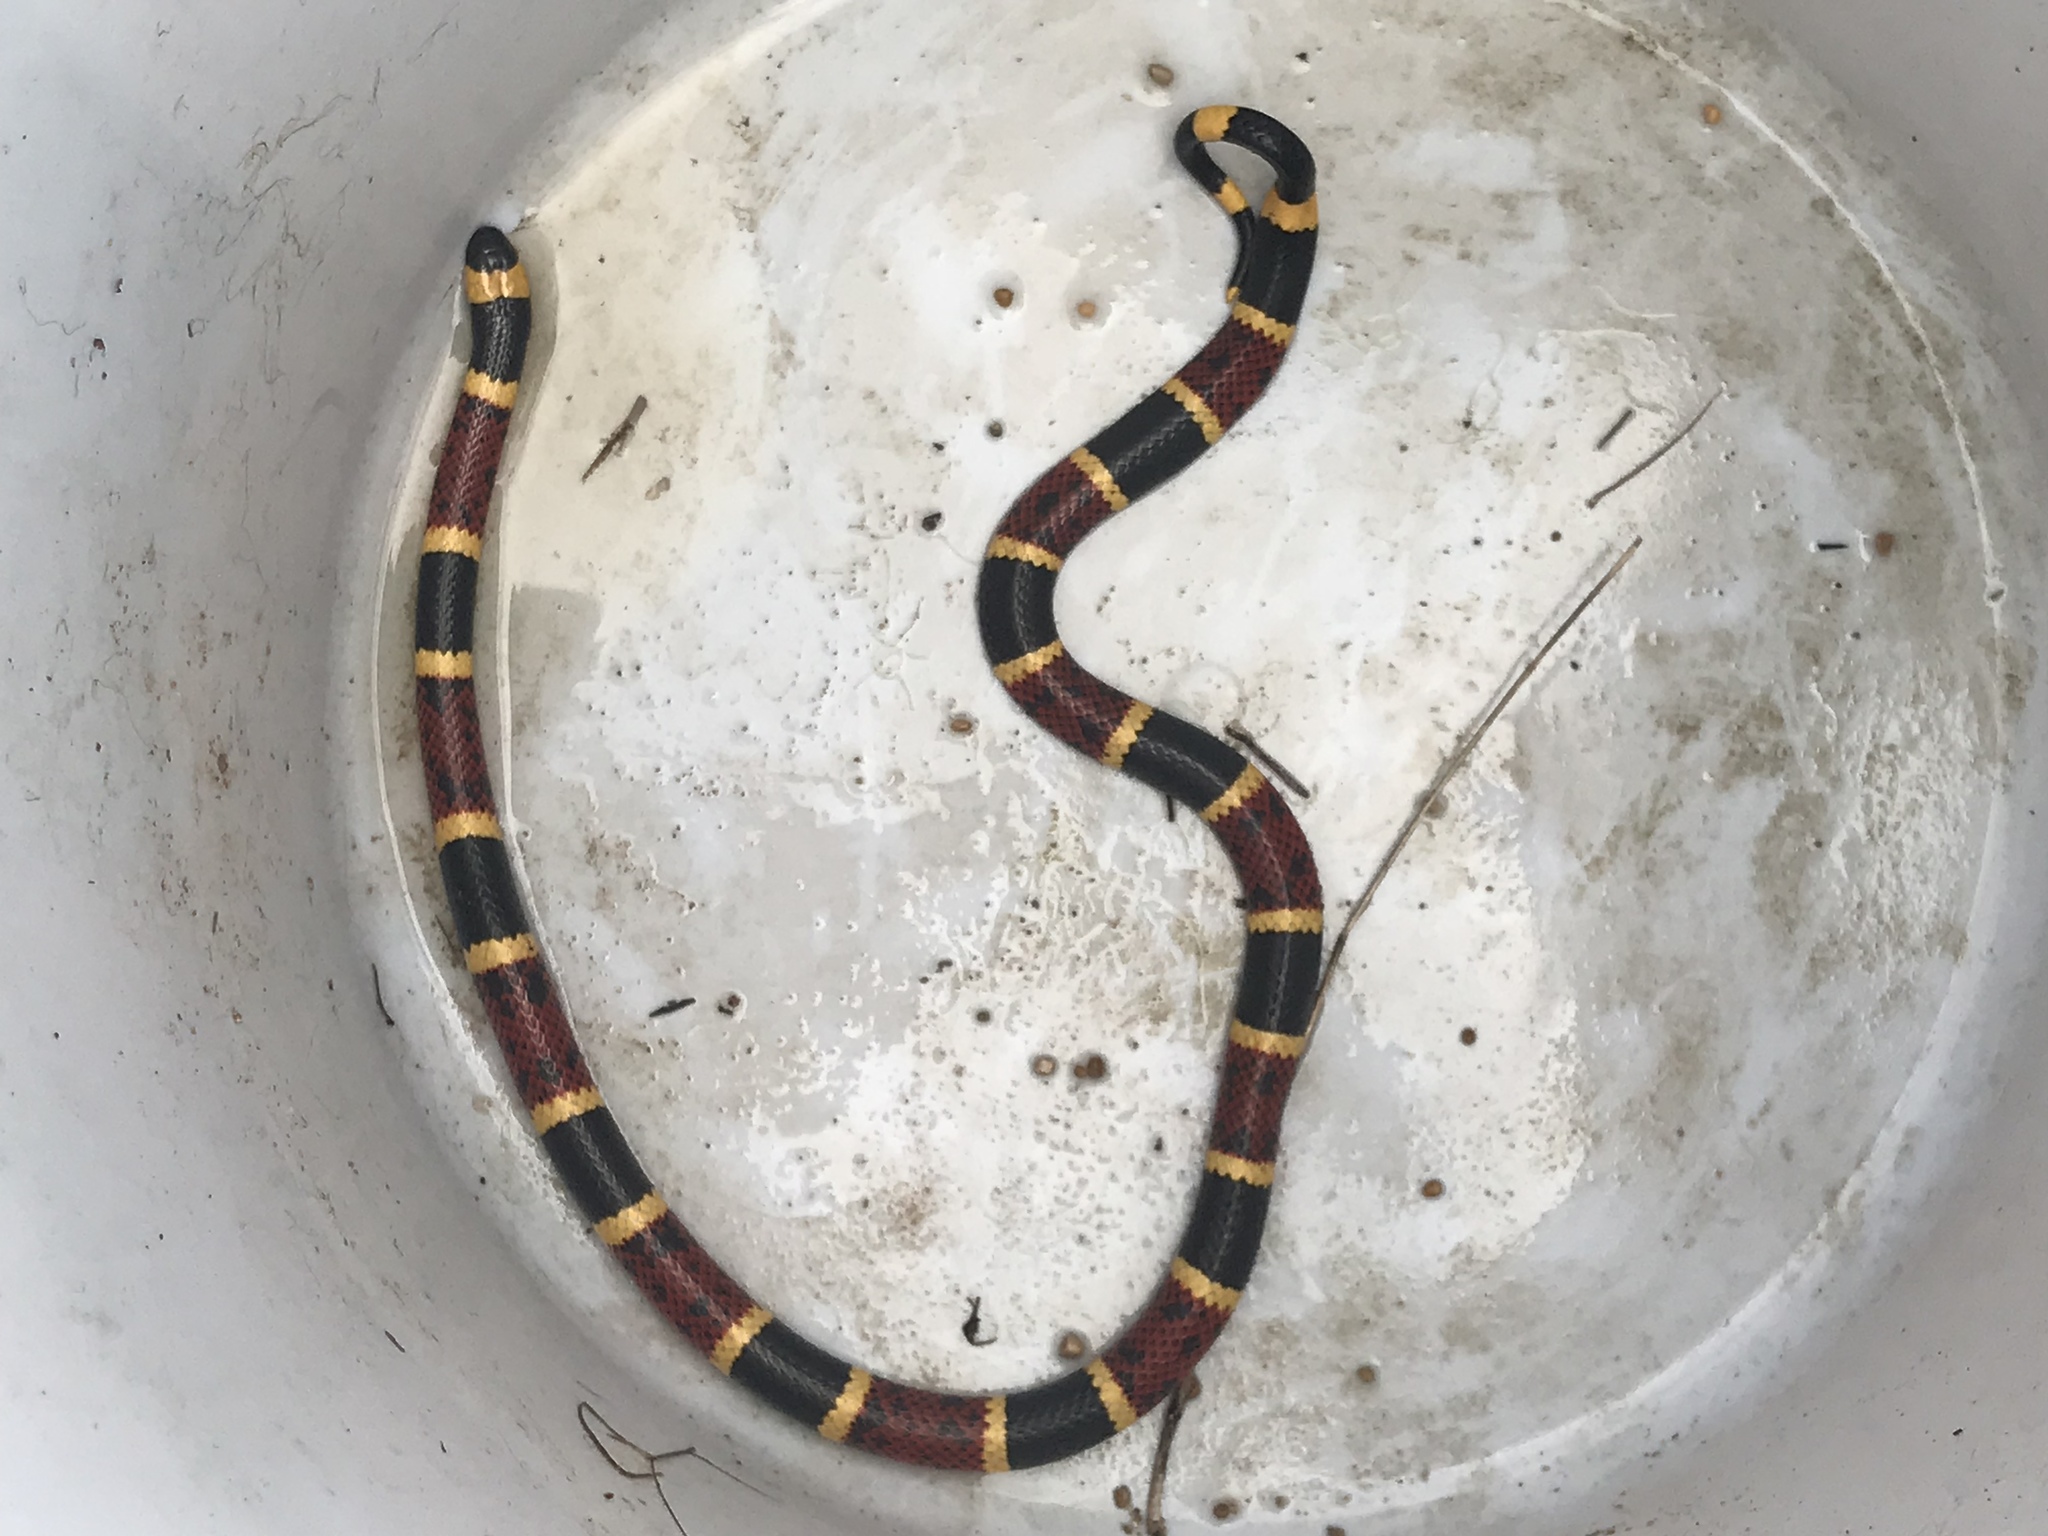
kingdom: Animalia
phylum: Chordata
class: Squamata
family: Elapidae
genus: Micrurus
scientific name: Micrurus tener
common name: Texas coral snake
